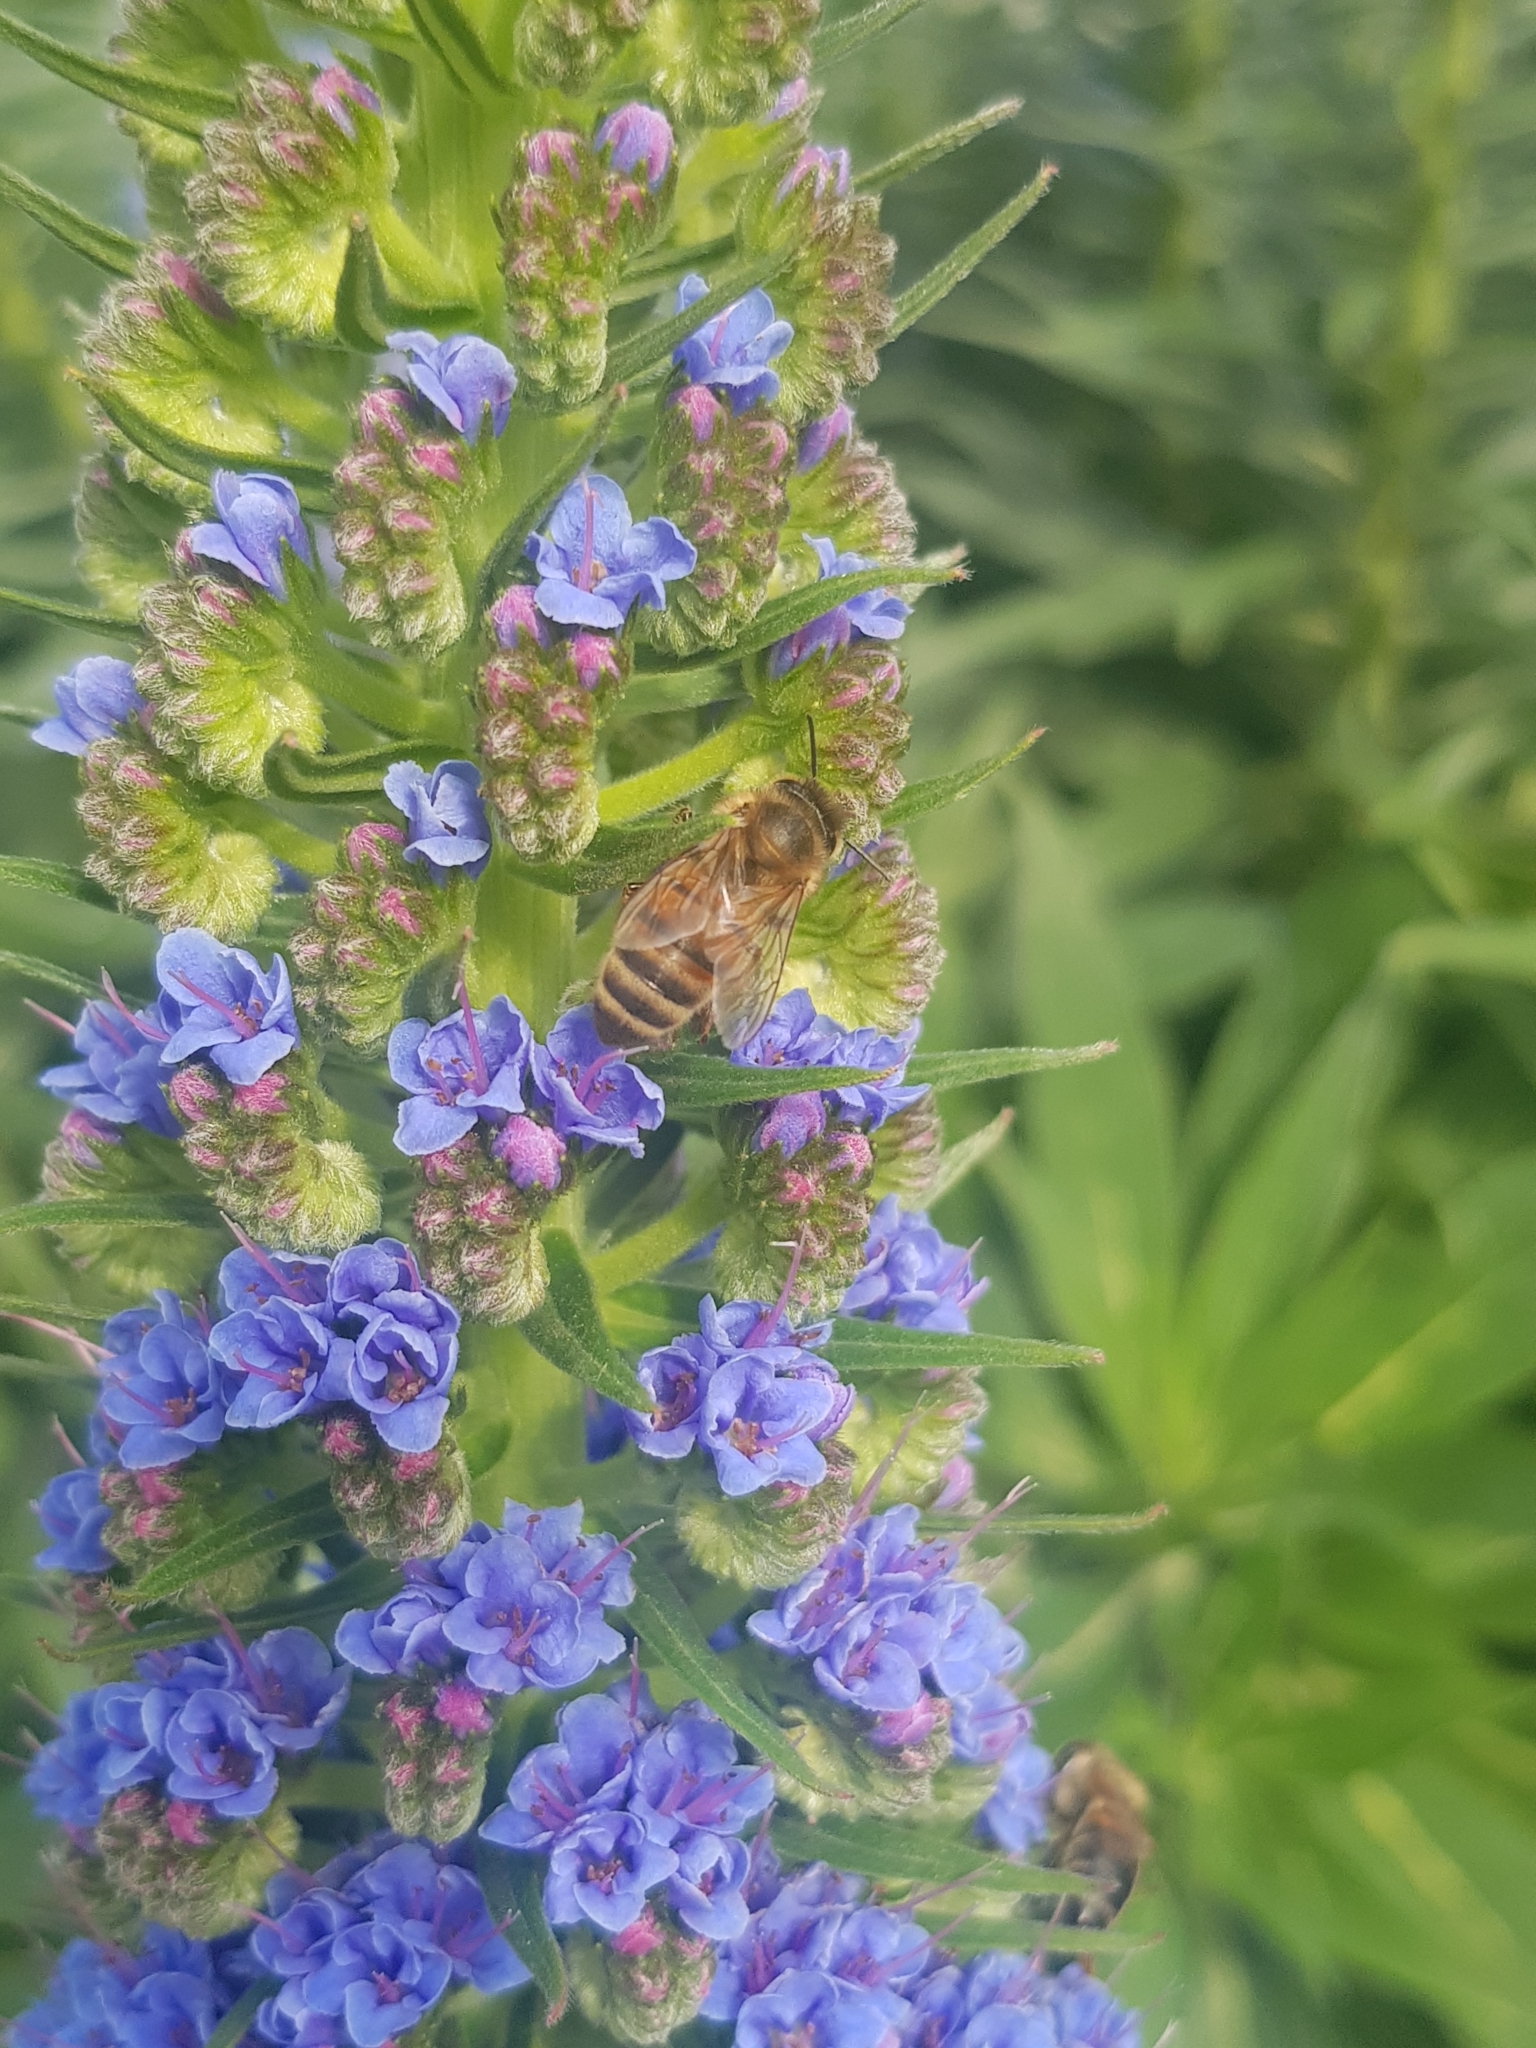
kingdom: Animalia
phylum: Arthropoda
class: Insecta
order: Hymenoptera
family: Apidae
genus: Apis
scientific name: Apis mellifera
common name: Honey bee
